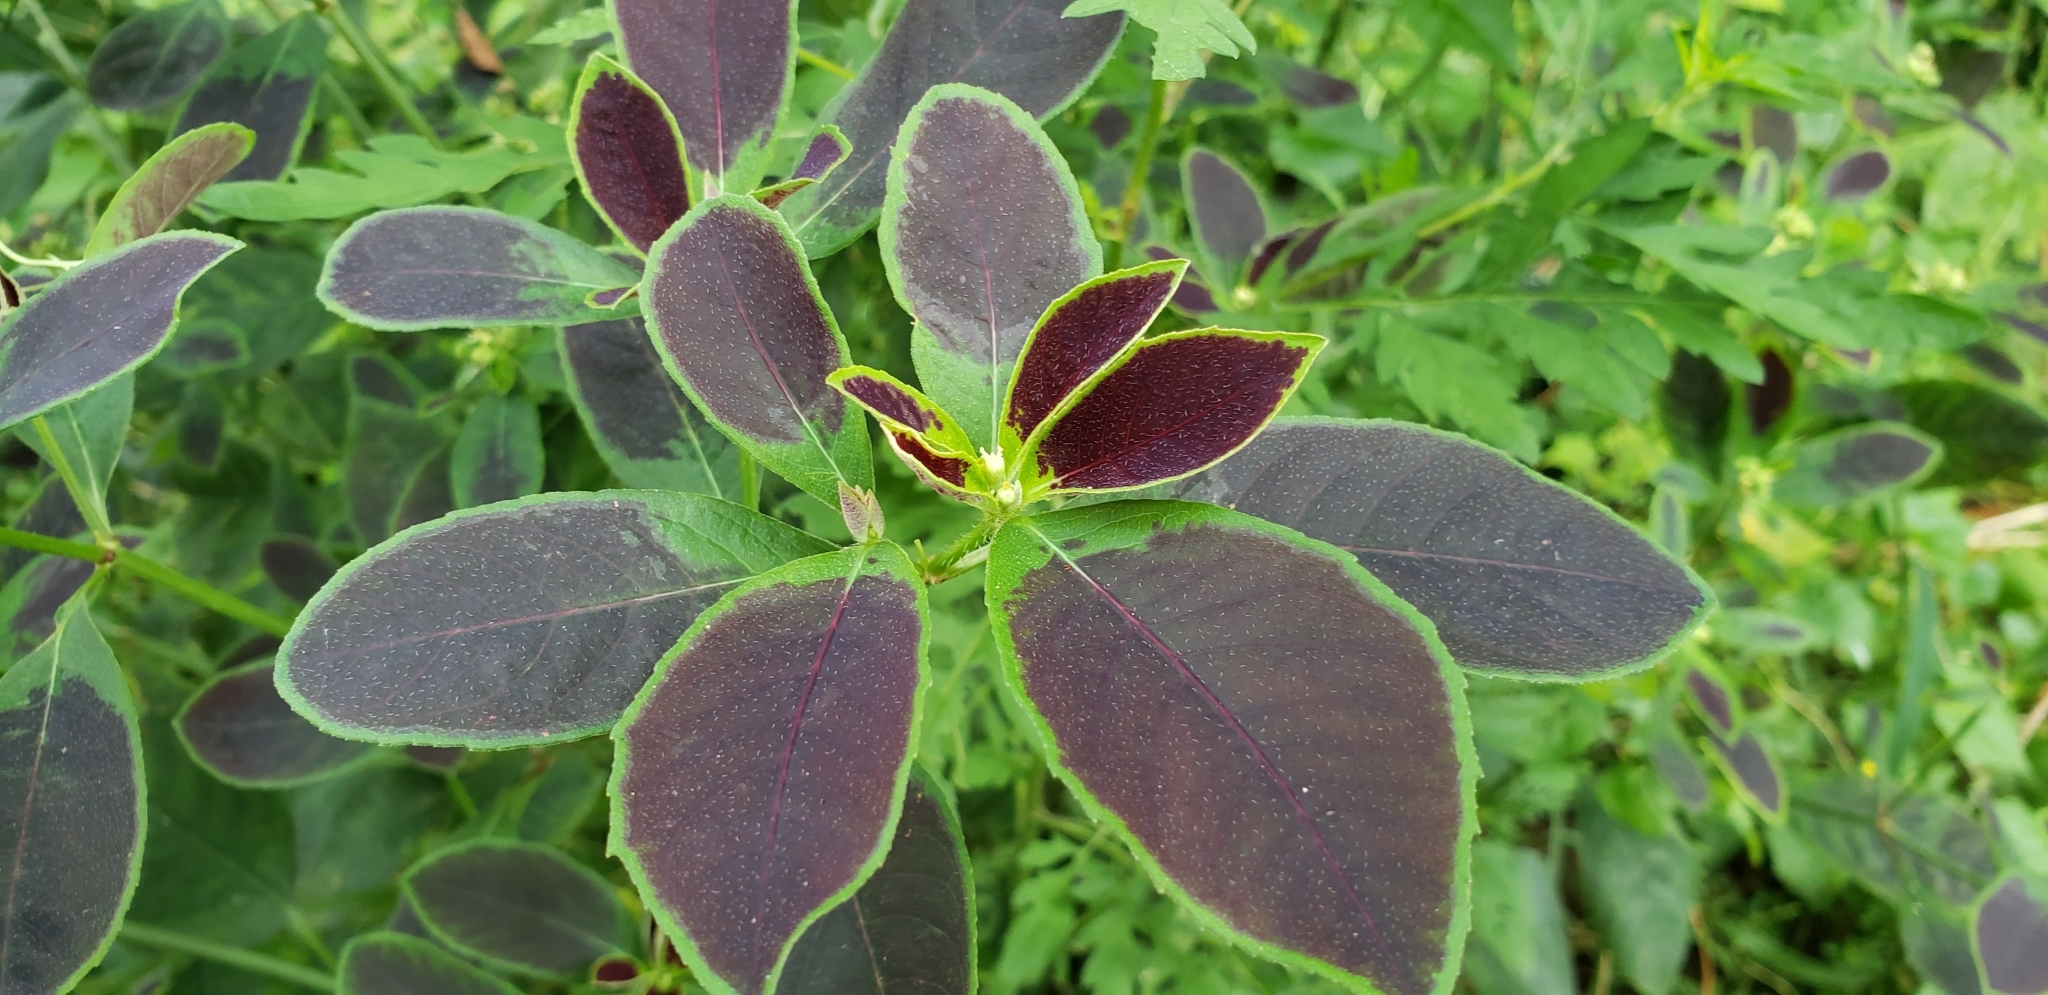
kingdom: Plantae
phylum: Tracheophyta
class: Magnoliopsida
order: Malpighiales
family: Euphorbiaceae
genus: Euphorbia
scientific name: Euphorbia heterophylla
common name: Mexican fireplant
